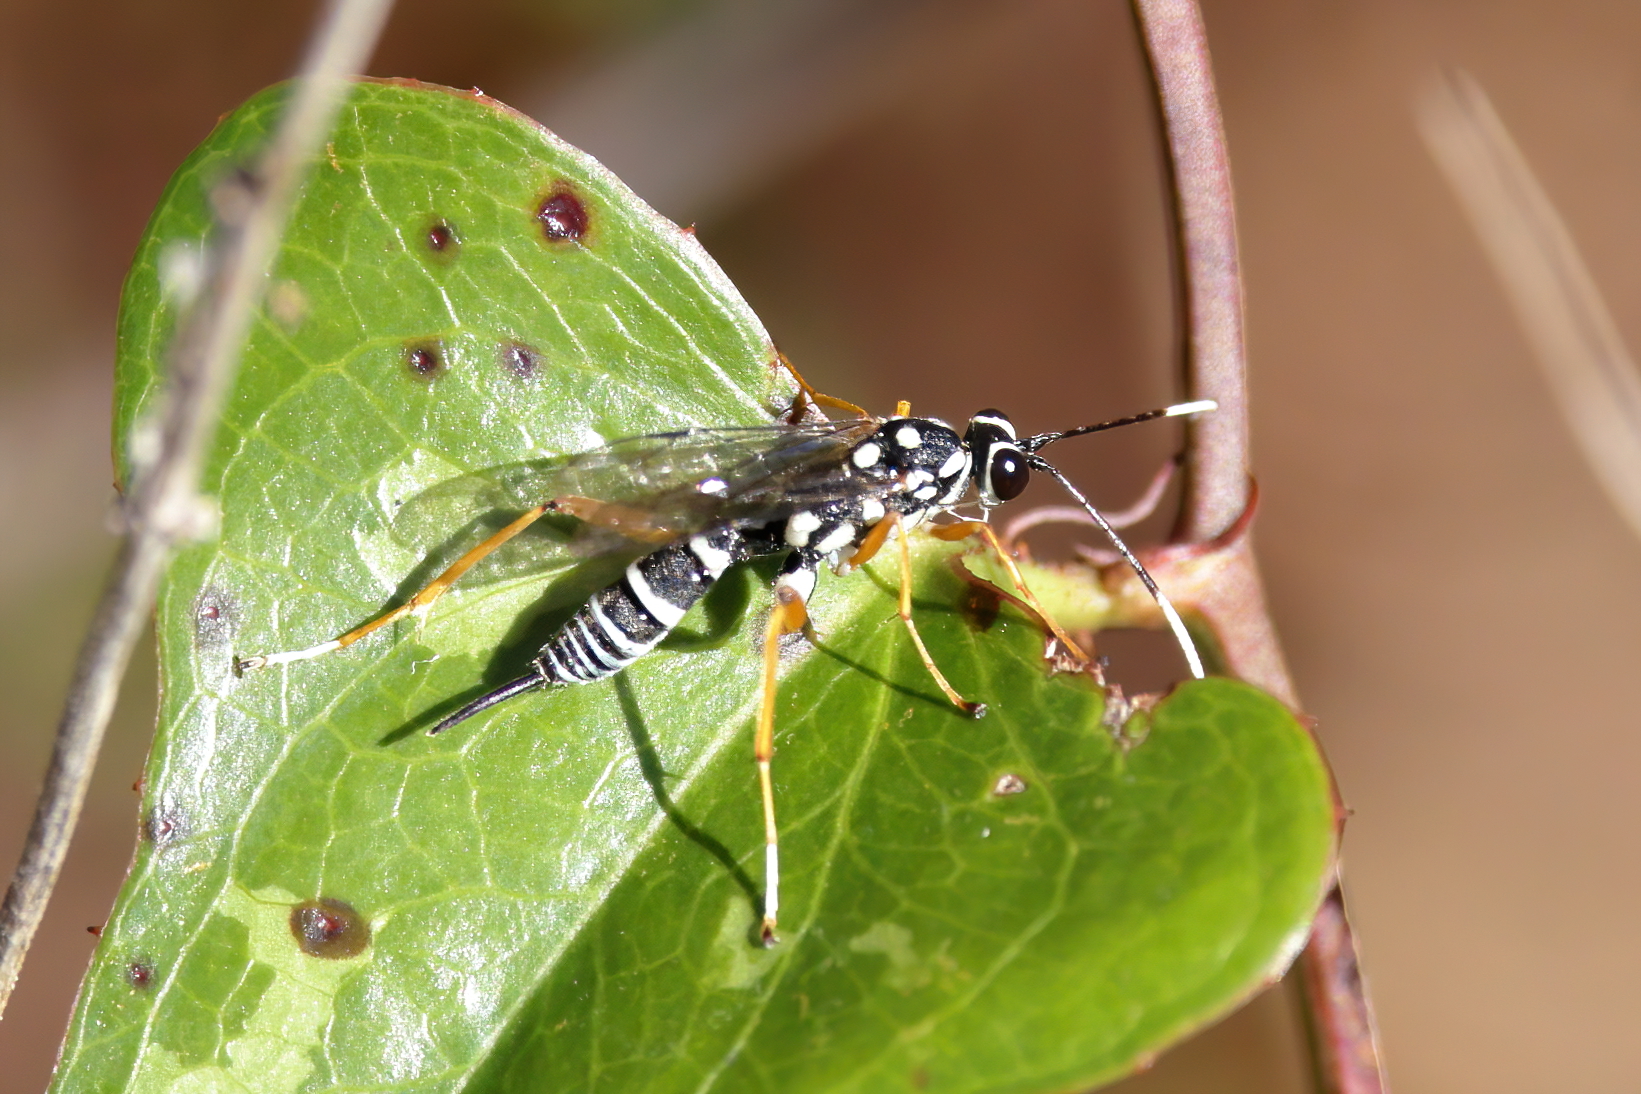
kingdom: Animalia
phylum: Arthropoda
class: Insecta
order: Hymenoptera
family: Ichneumonidae
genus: Agonocryptus
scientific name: Agonocryptus chichimecus
